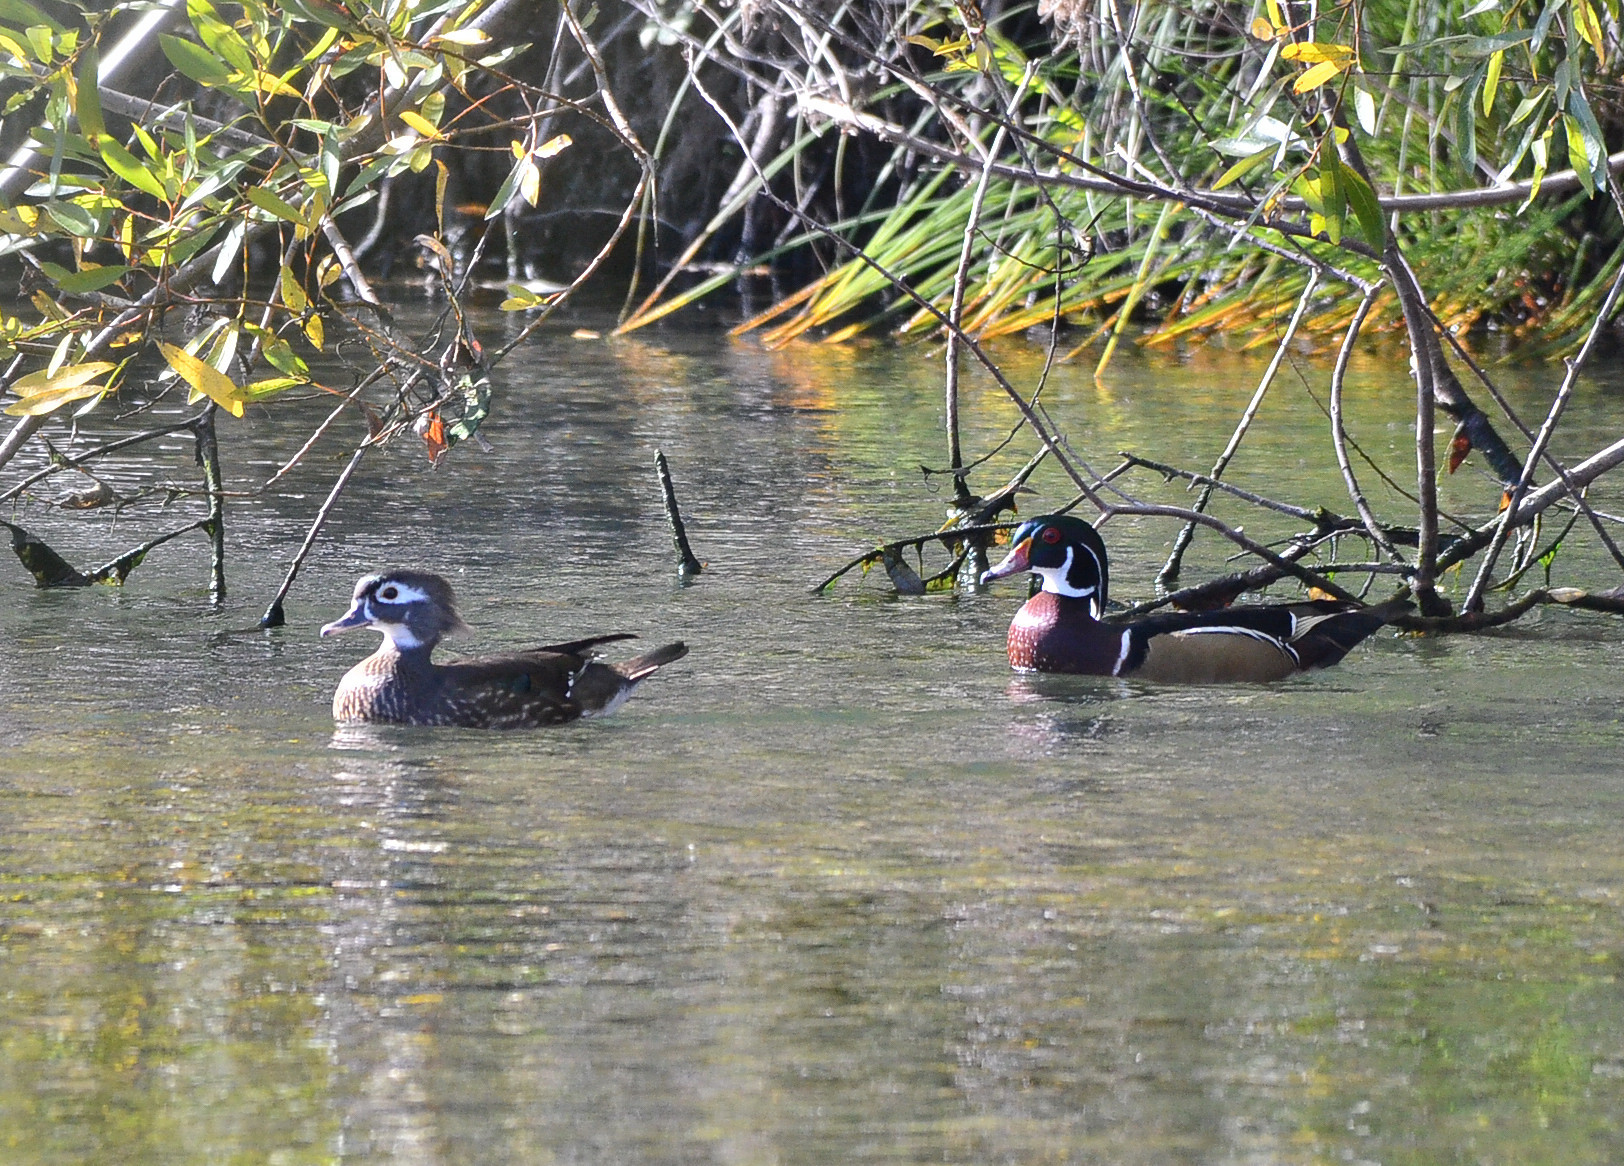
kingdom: Animalia
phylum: Chordata
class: Aves
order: Anseriformes
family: Anatidae
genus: Aix
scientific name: Aix sponsa
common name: Wood duck
